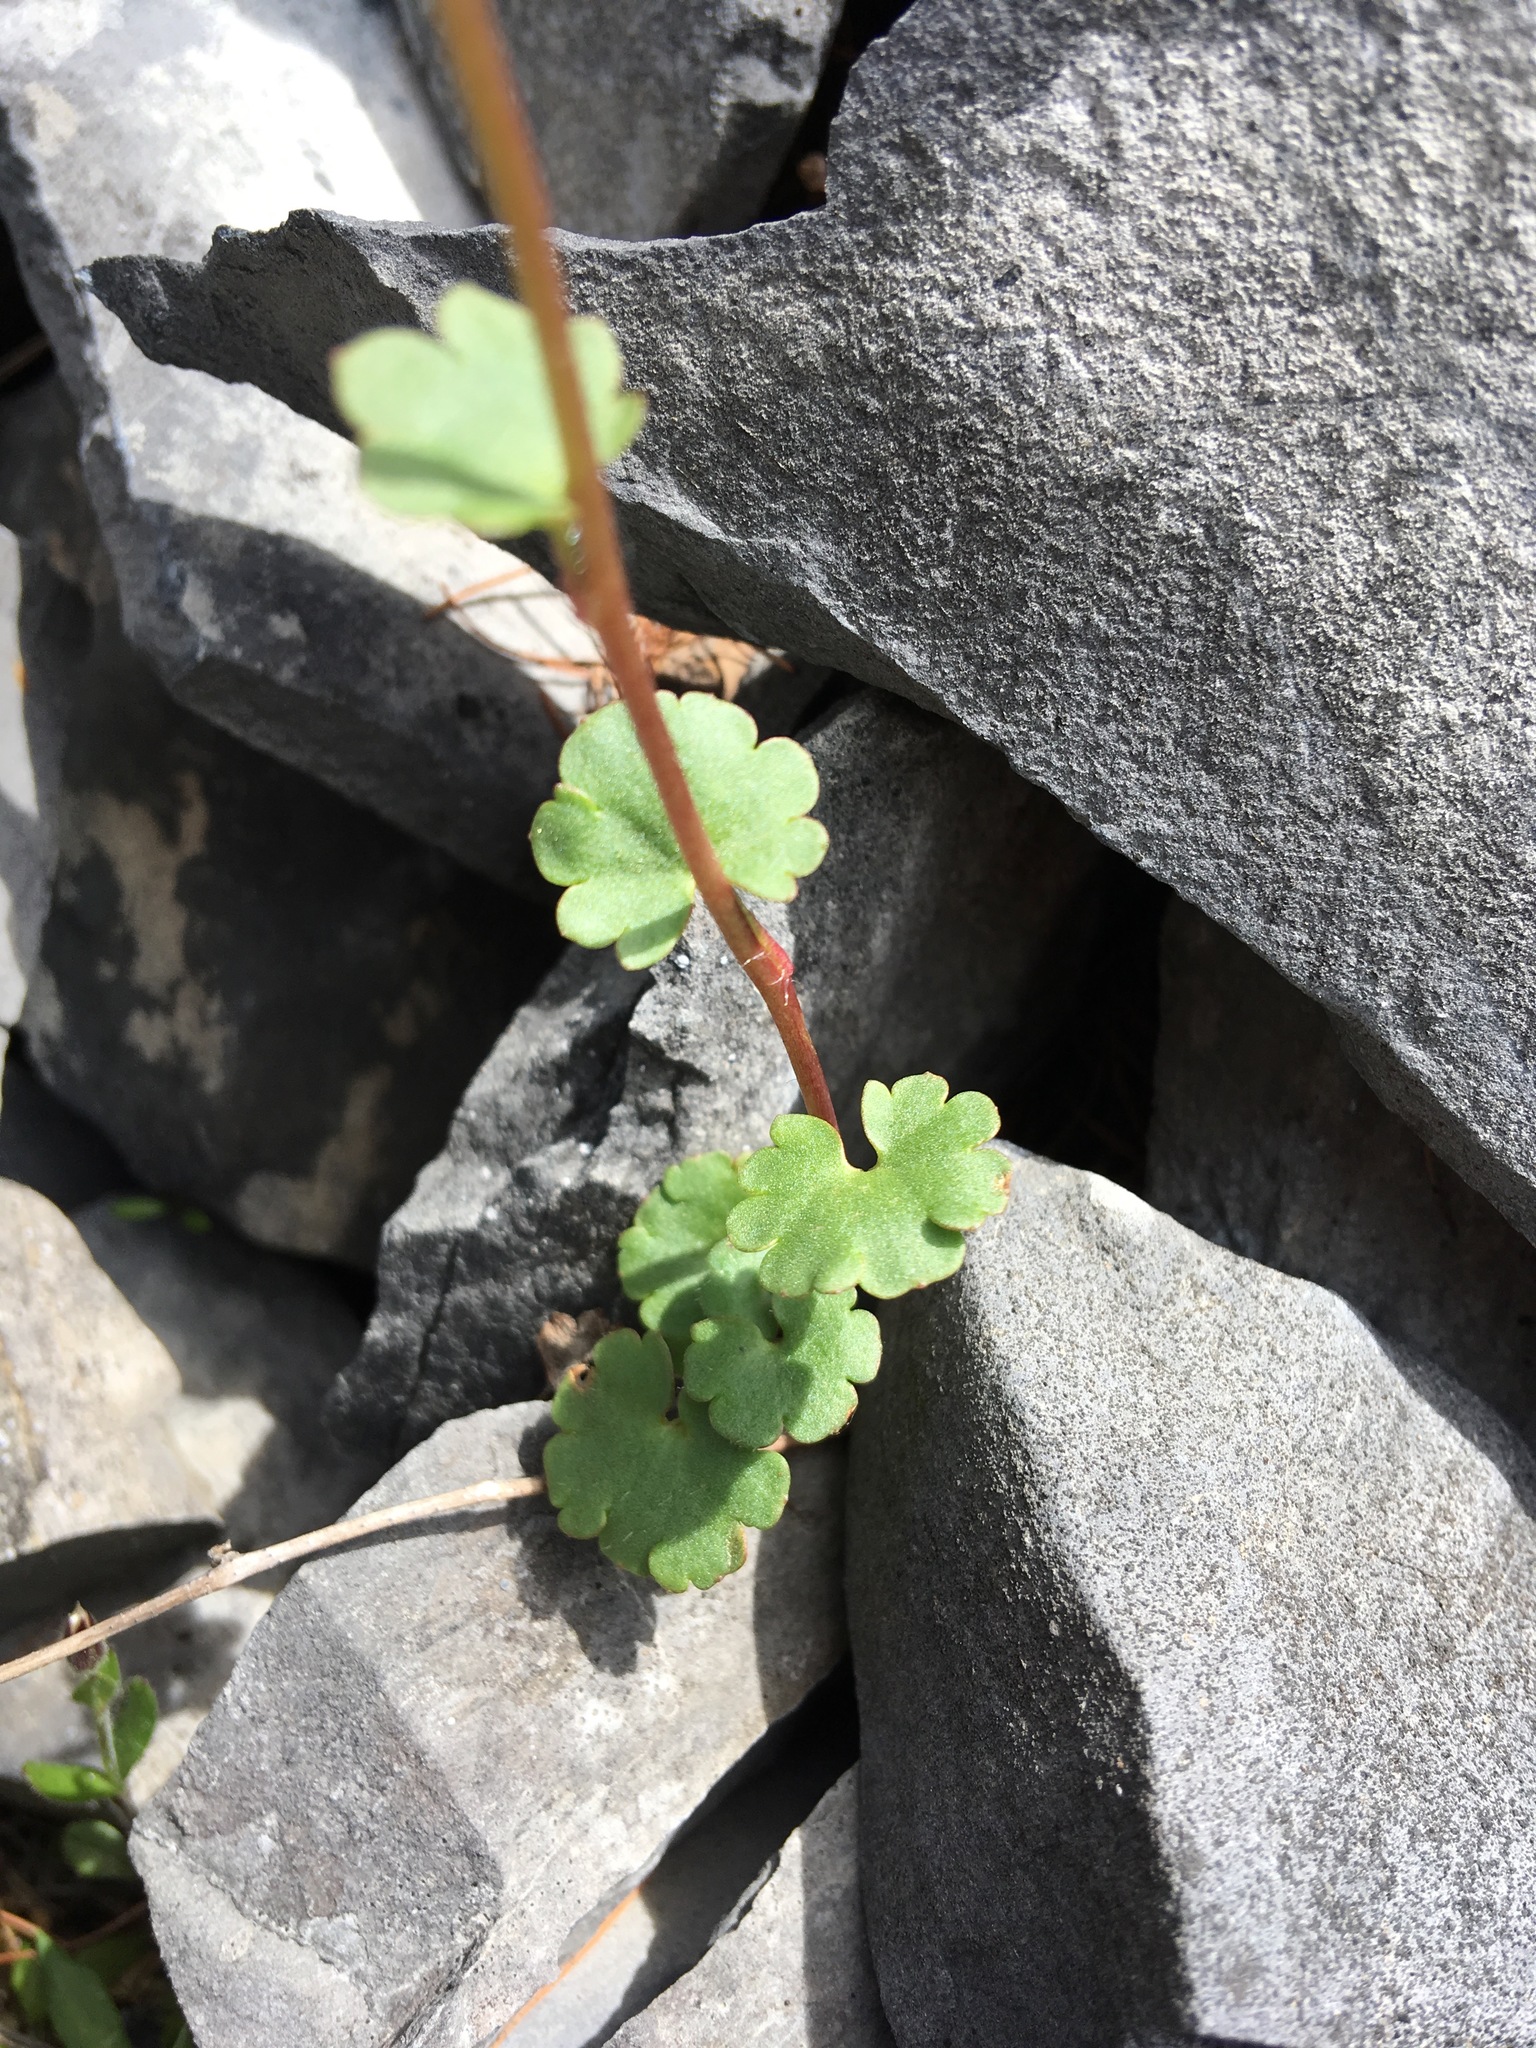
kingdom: Plantae
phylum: Tracheophyta
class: Magnoliopsida
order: Saxifragales
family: Saxifragaceae
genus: Saxifraga
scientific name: Saxifraga cernua
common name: Drooping saxifrage
